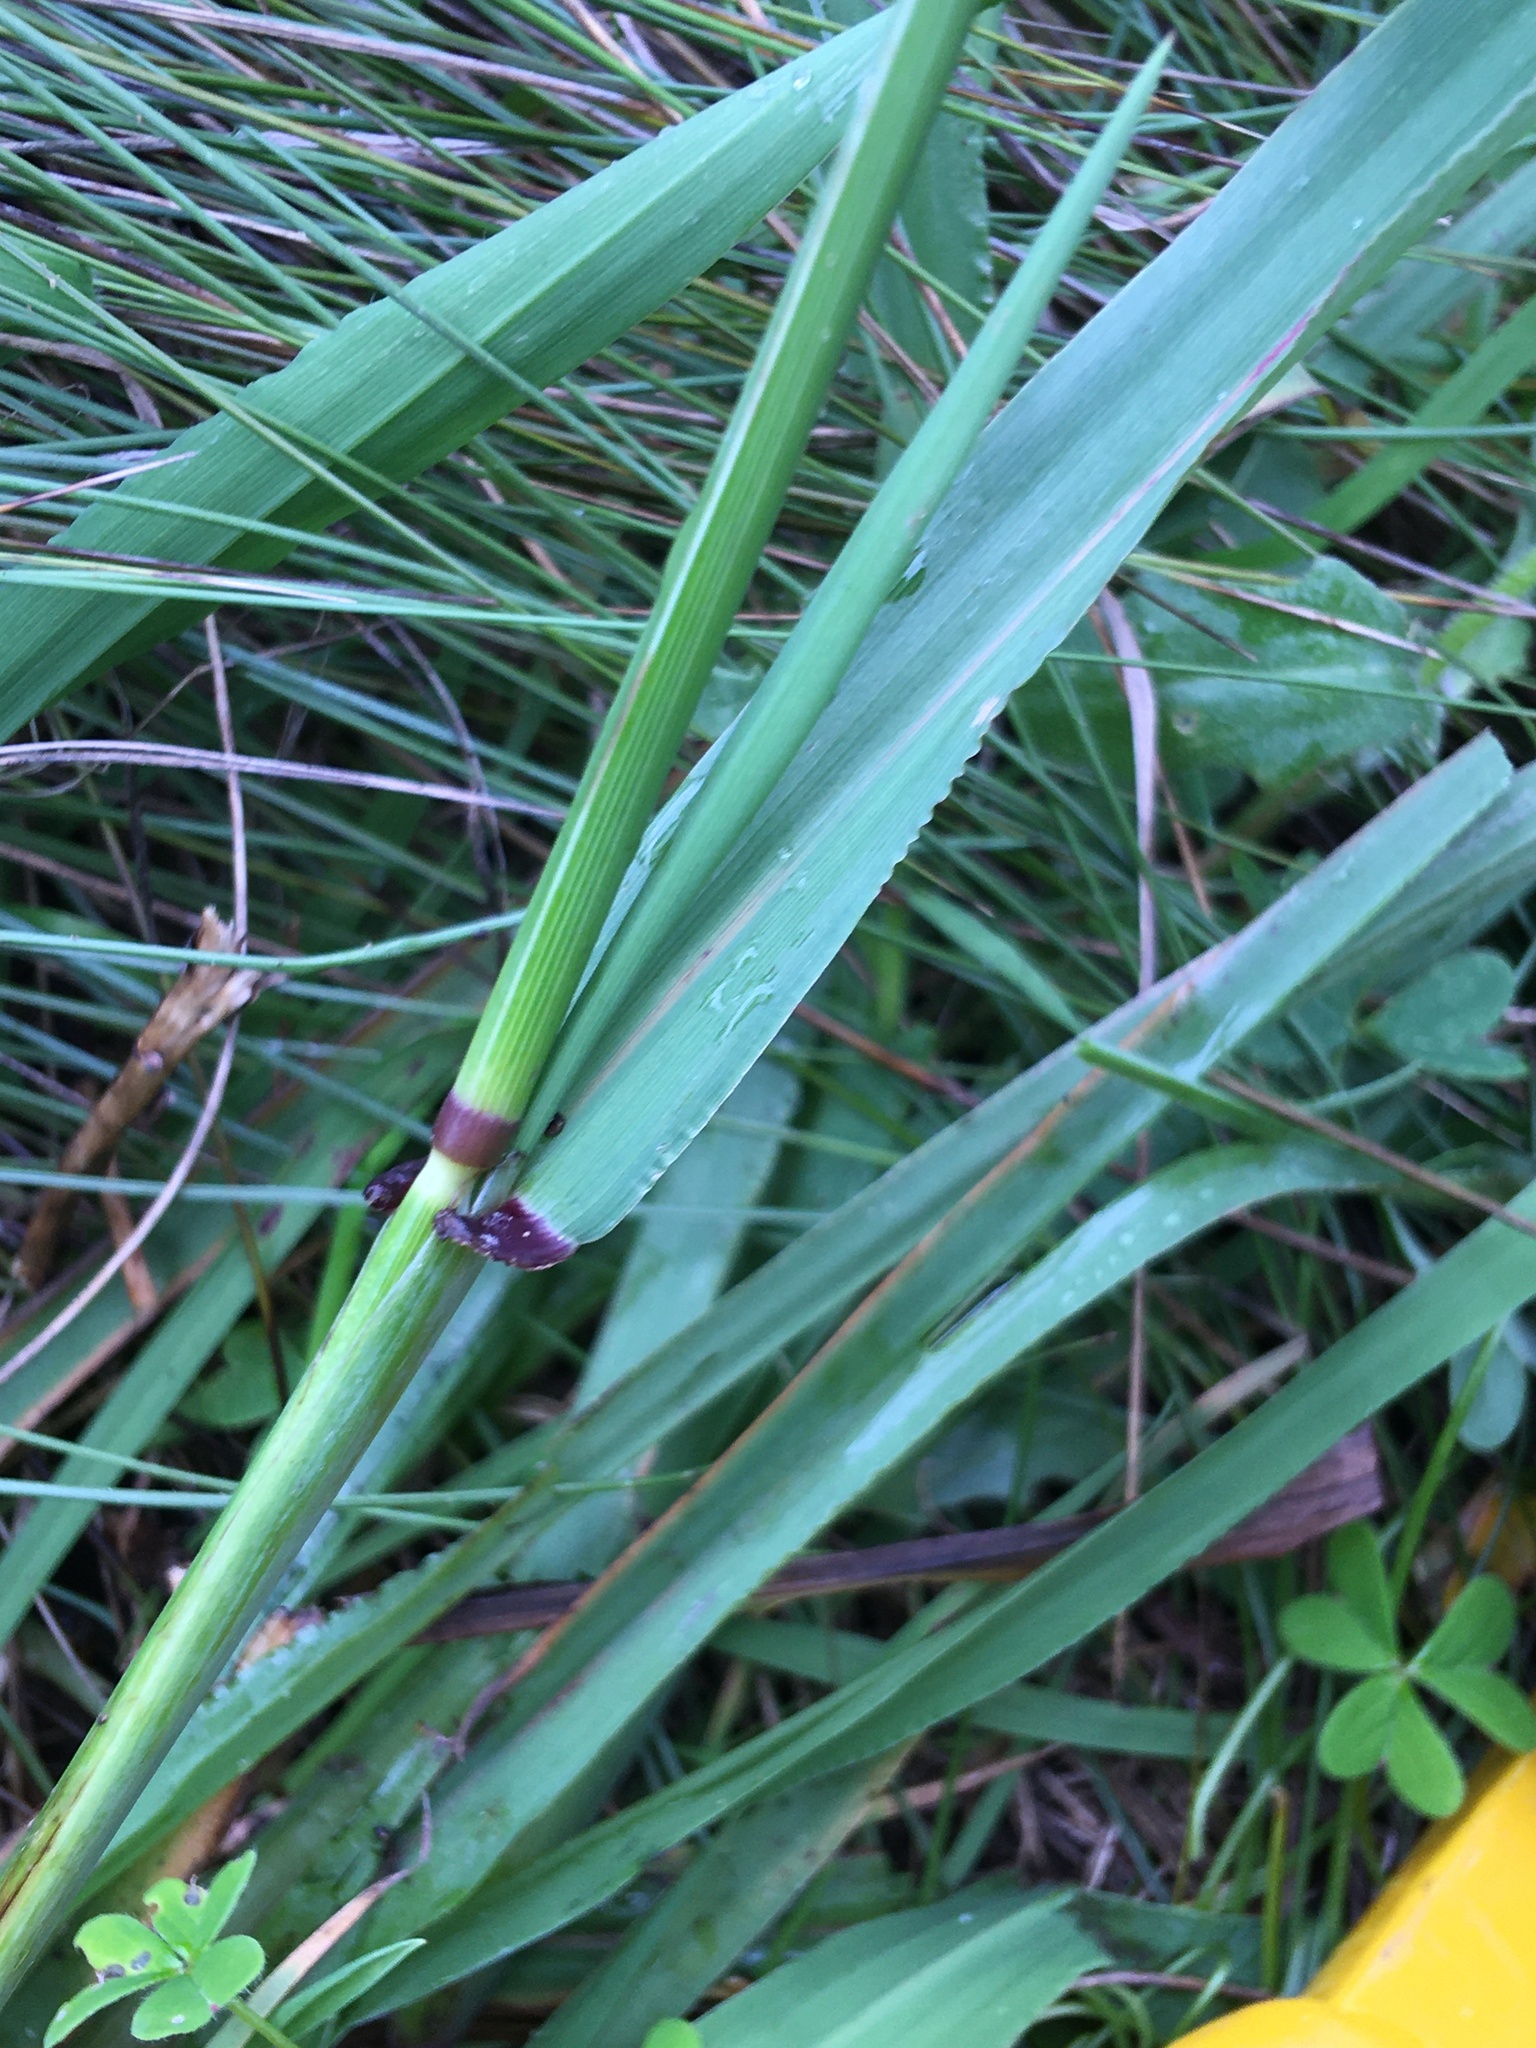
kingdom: Plantae
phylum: Tracheophyta
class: Liliopsida
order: Poales
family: Poaceae
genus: Ehrharta
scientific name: Ehrharta longiflora
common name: Longflowered veldtgrass
